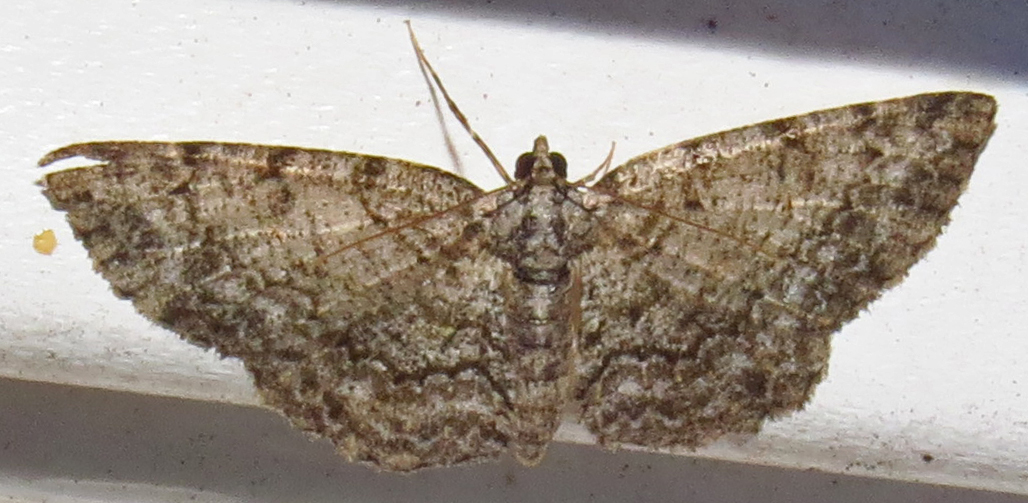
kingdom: Animalia
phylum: Arthropoda
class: Insecta
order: Lepidoptera
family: Geometridae
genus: Protoboarmia
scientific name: Protoboarmia porcelaria
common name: Porcelain gray
